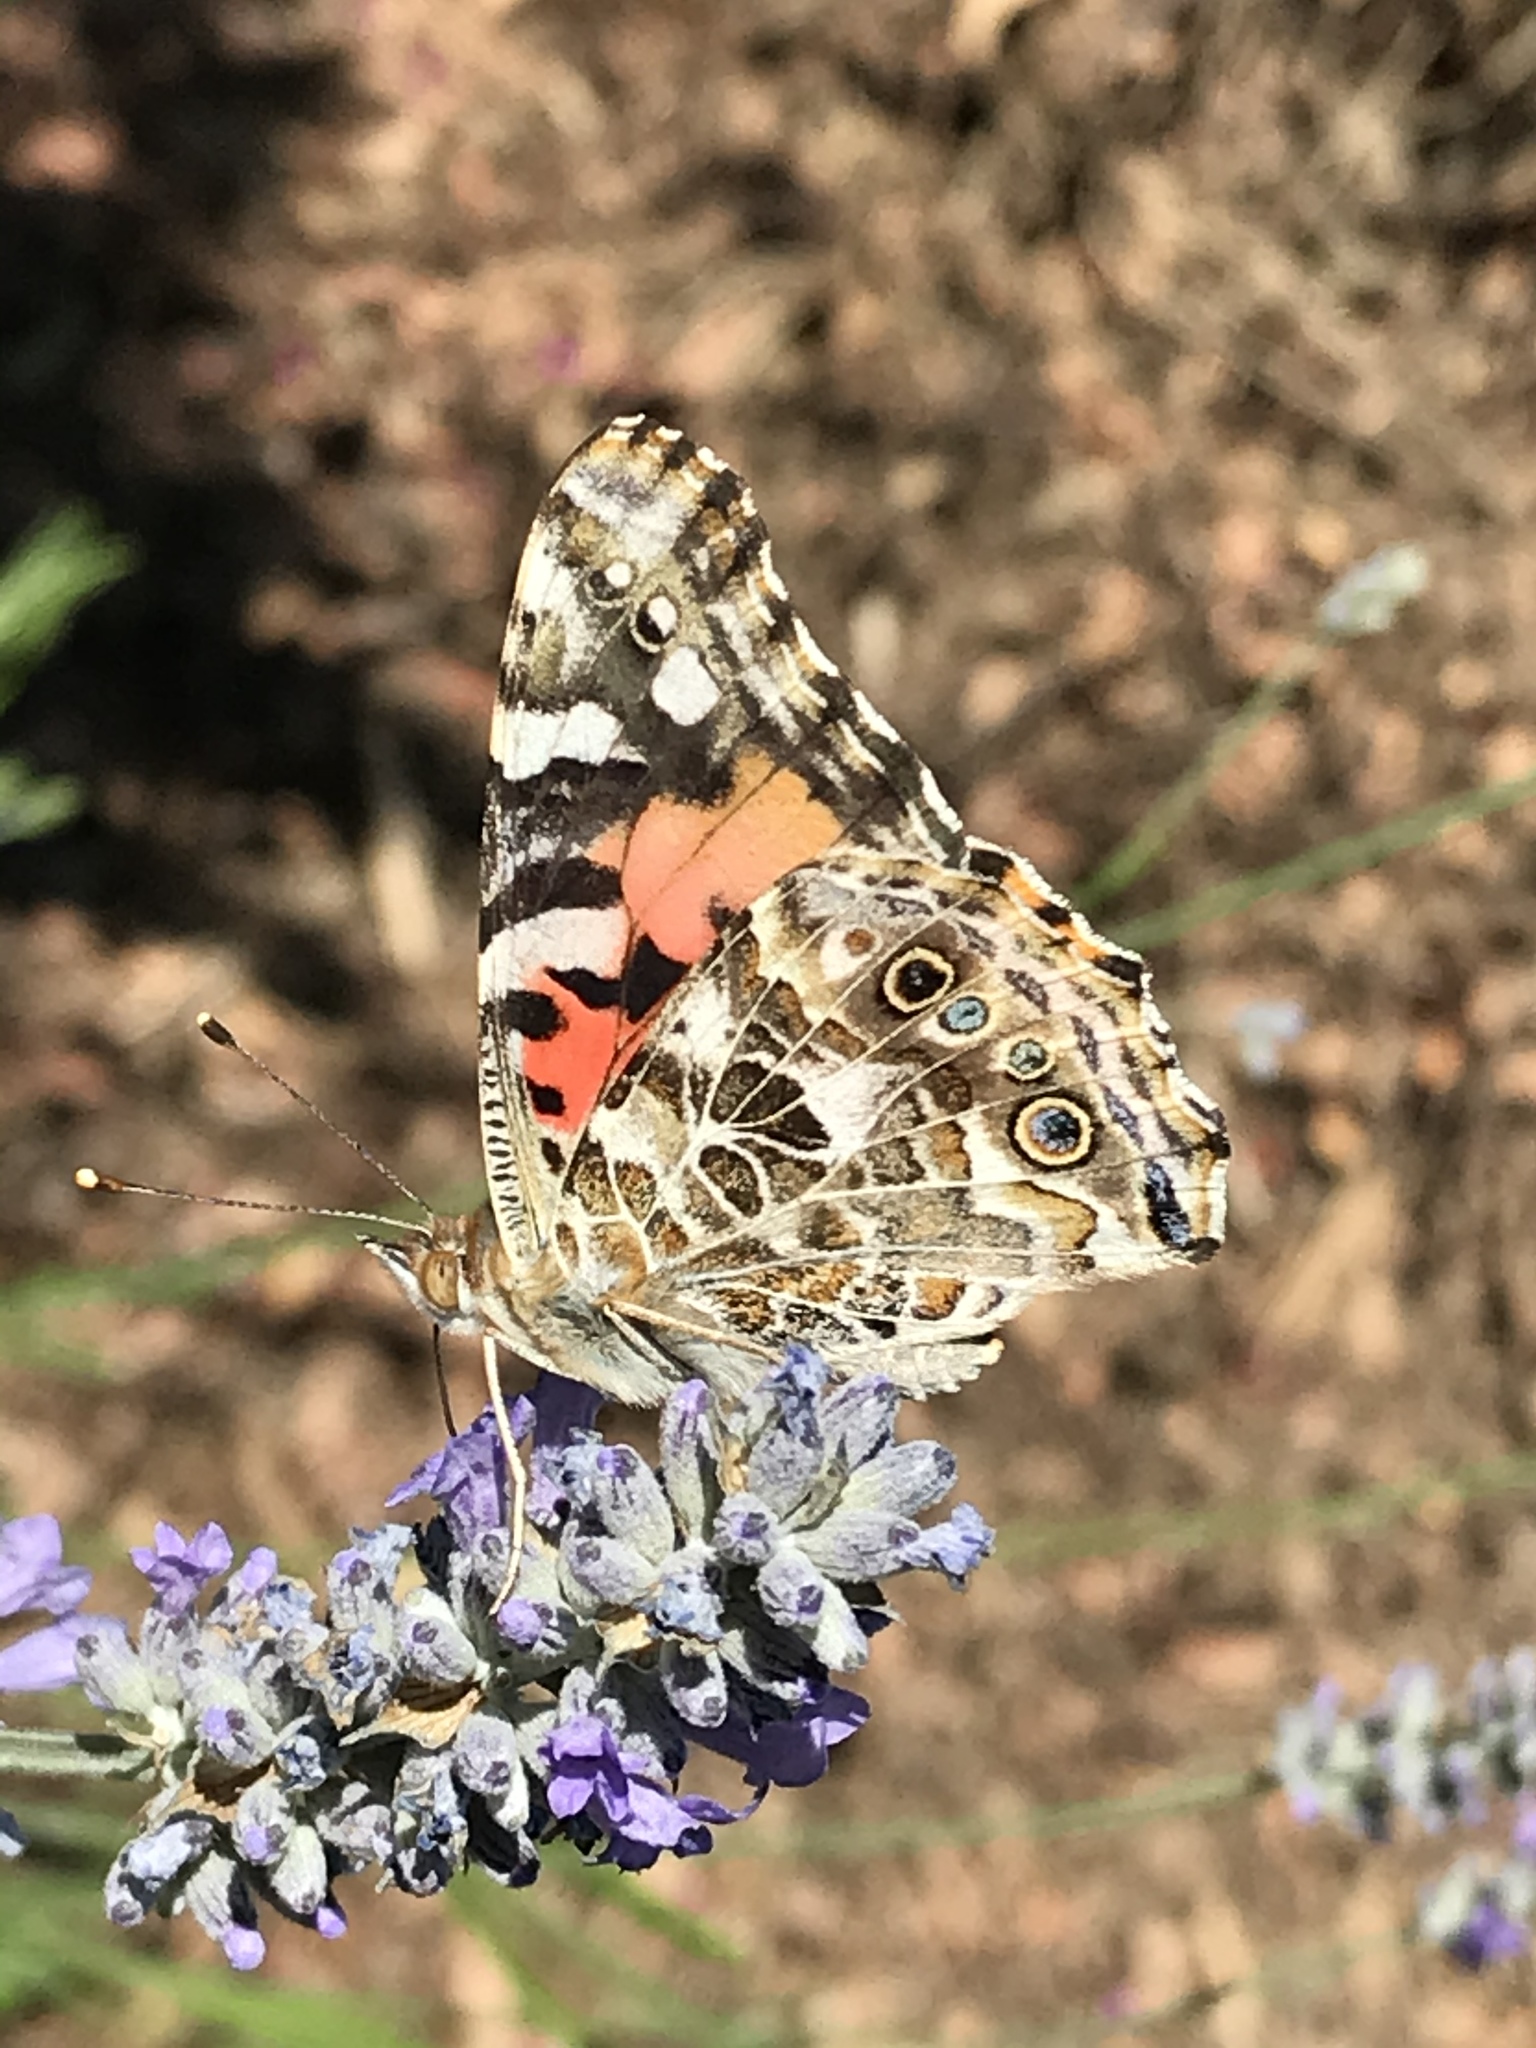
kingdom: Animalia
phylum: Arthropoda
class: Insecta
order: Lepidoptera
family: Nymphalidae
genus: Vanessa
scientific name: Vanessa cardui
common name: Painted lady
